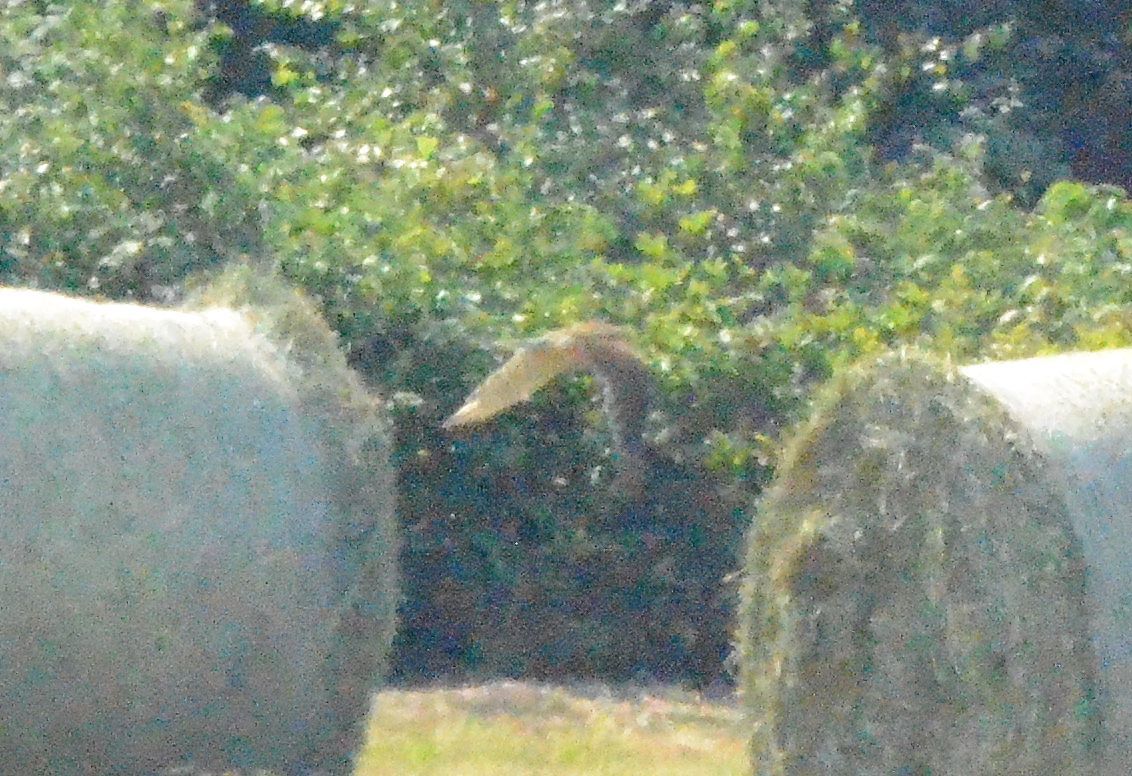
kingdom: Animalia
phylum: Chordata
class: Aves
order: Falconiformes
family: Falconidae
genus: Falco
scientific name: Falco tinnunculus
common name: Common kestrel
